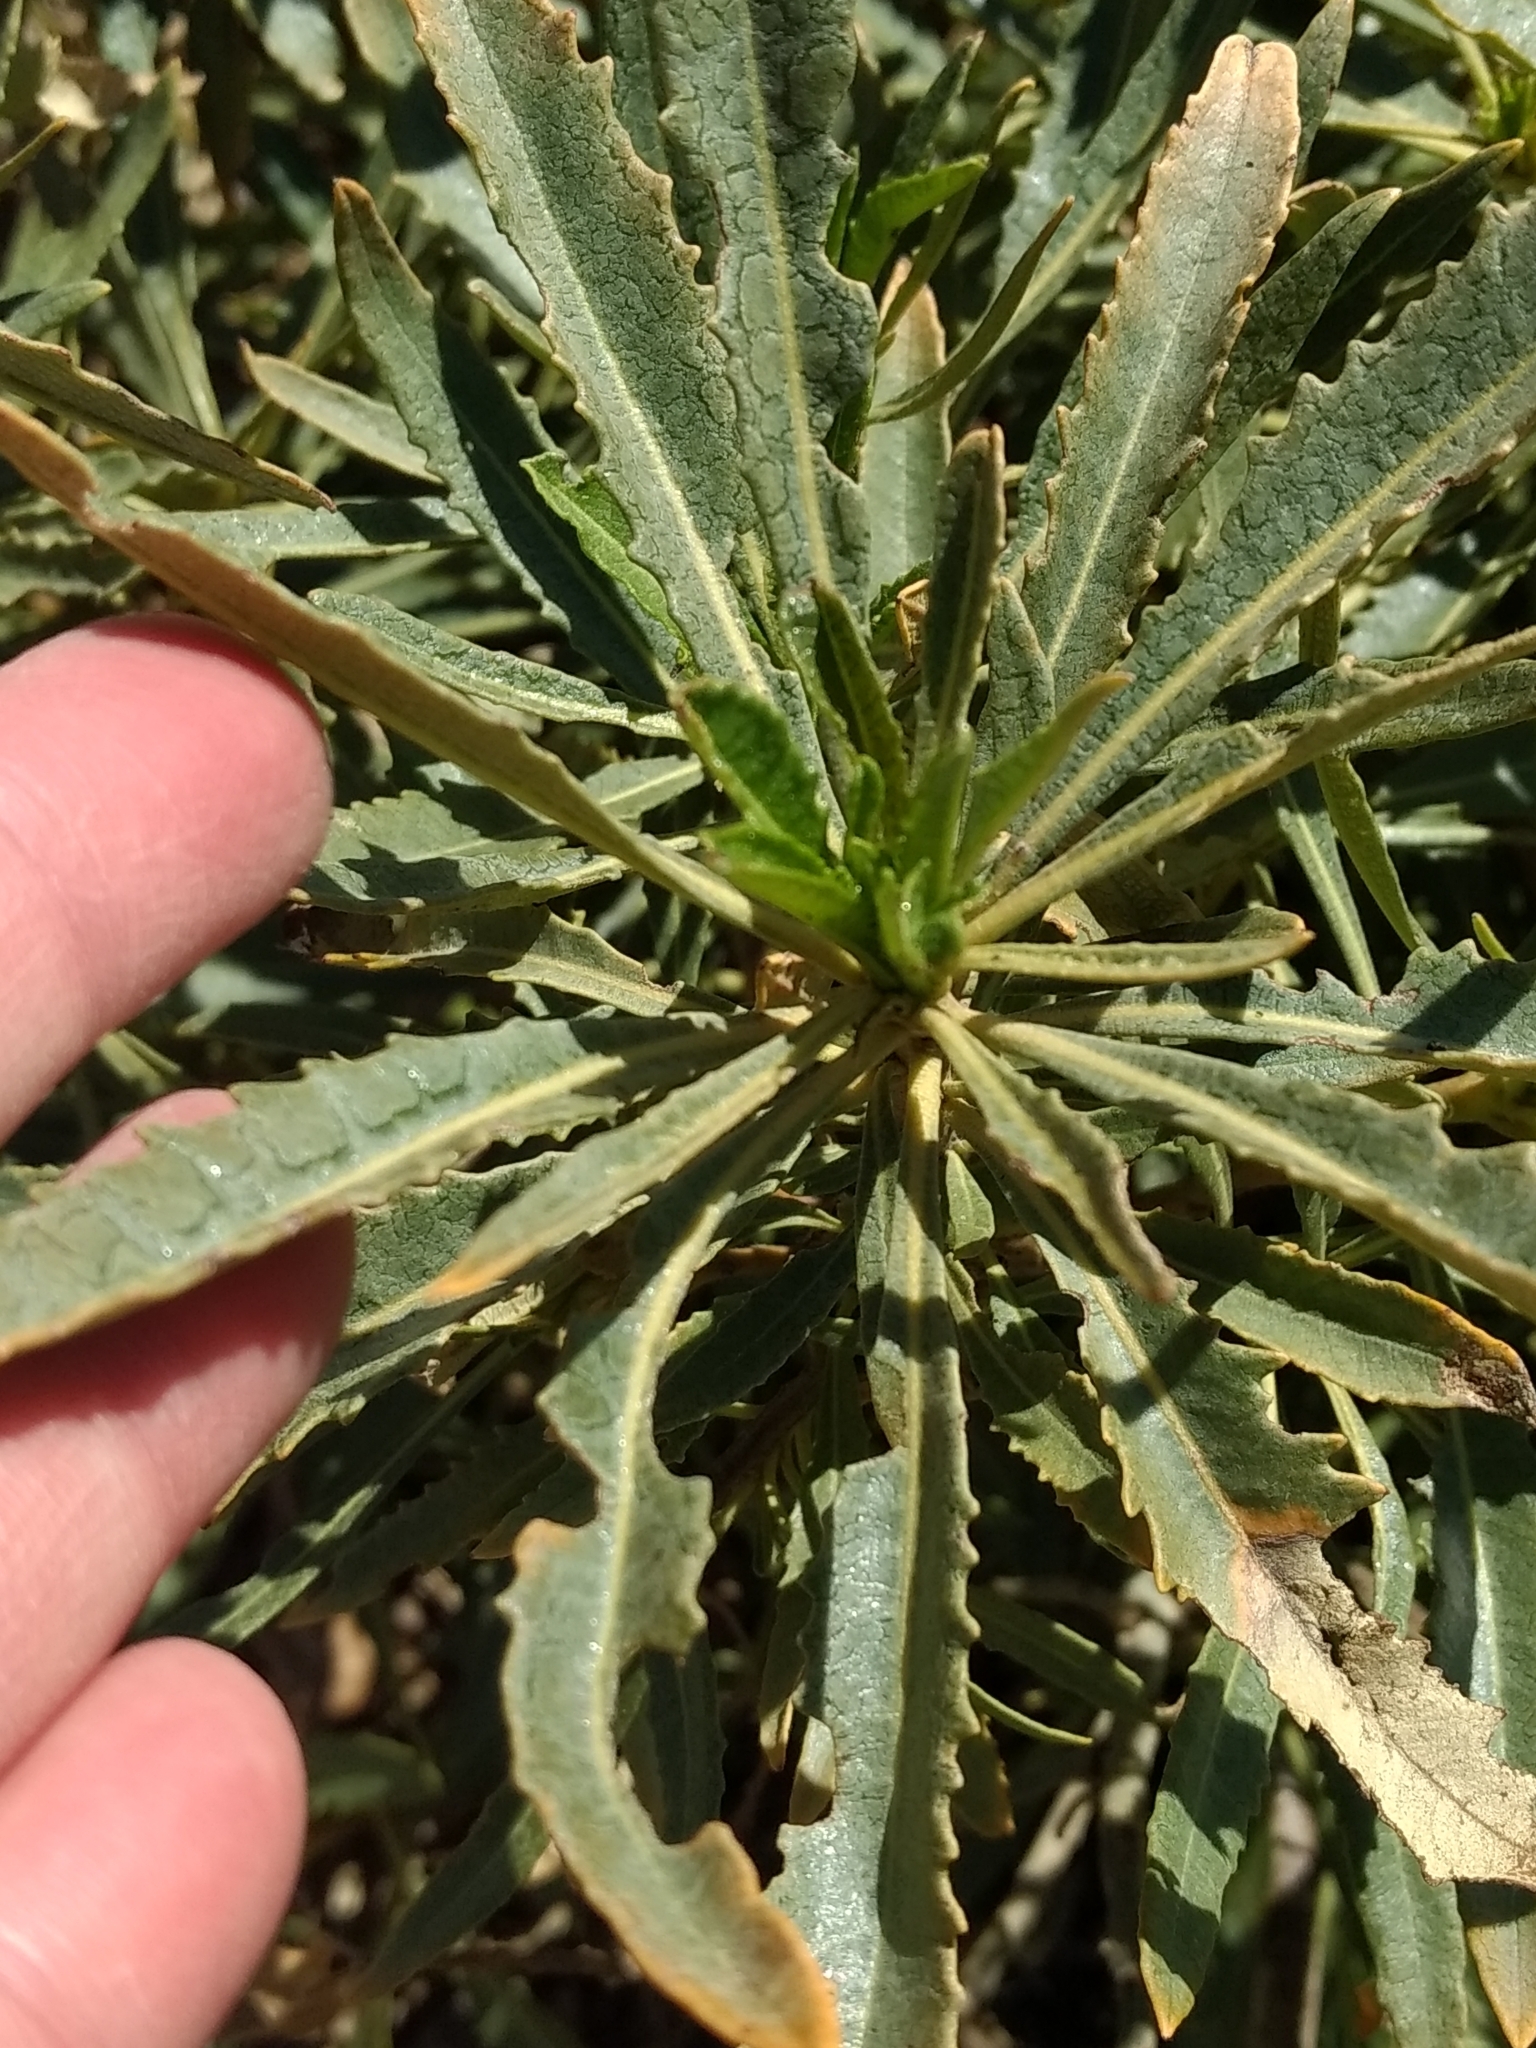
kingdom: Plantae
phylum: Tracheophyta
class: Magnoliopsida
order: Boraginales
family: Namaceae
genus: Eriodictyon
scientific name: Eriodictyon trichocalyx
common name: Hairy yerba-santa
